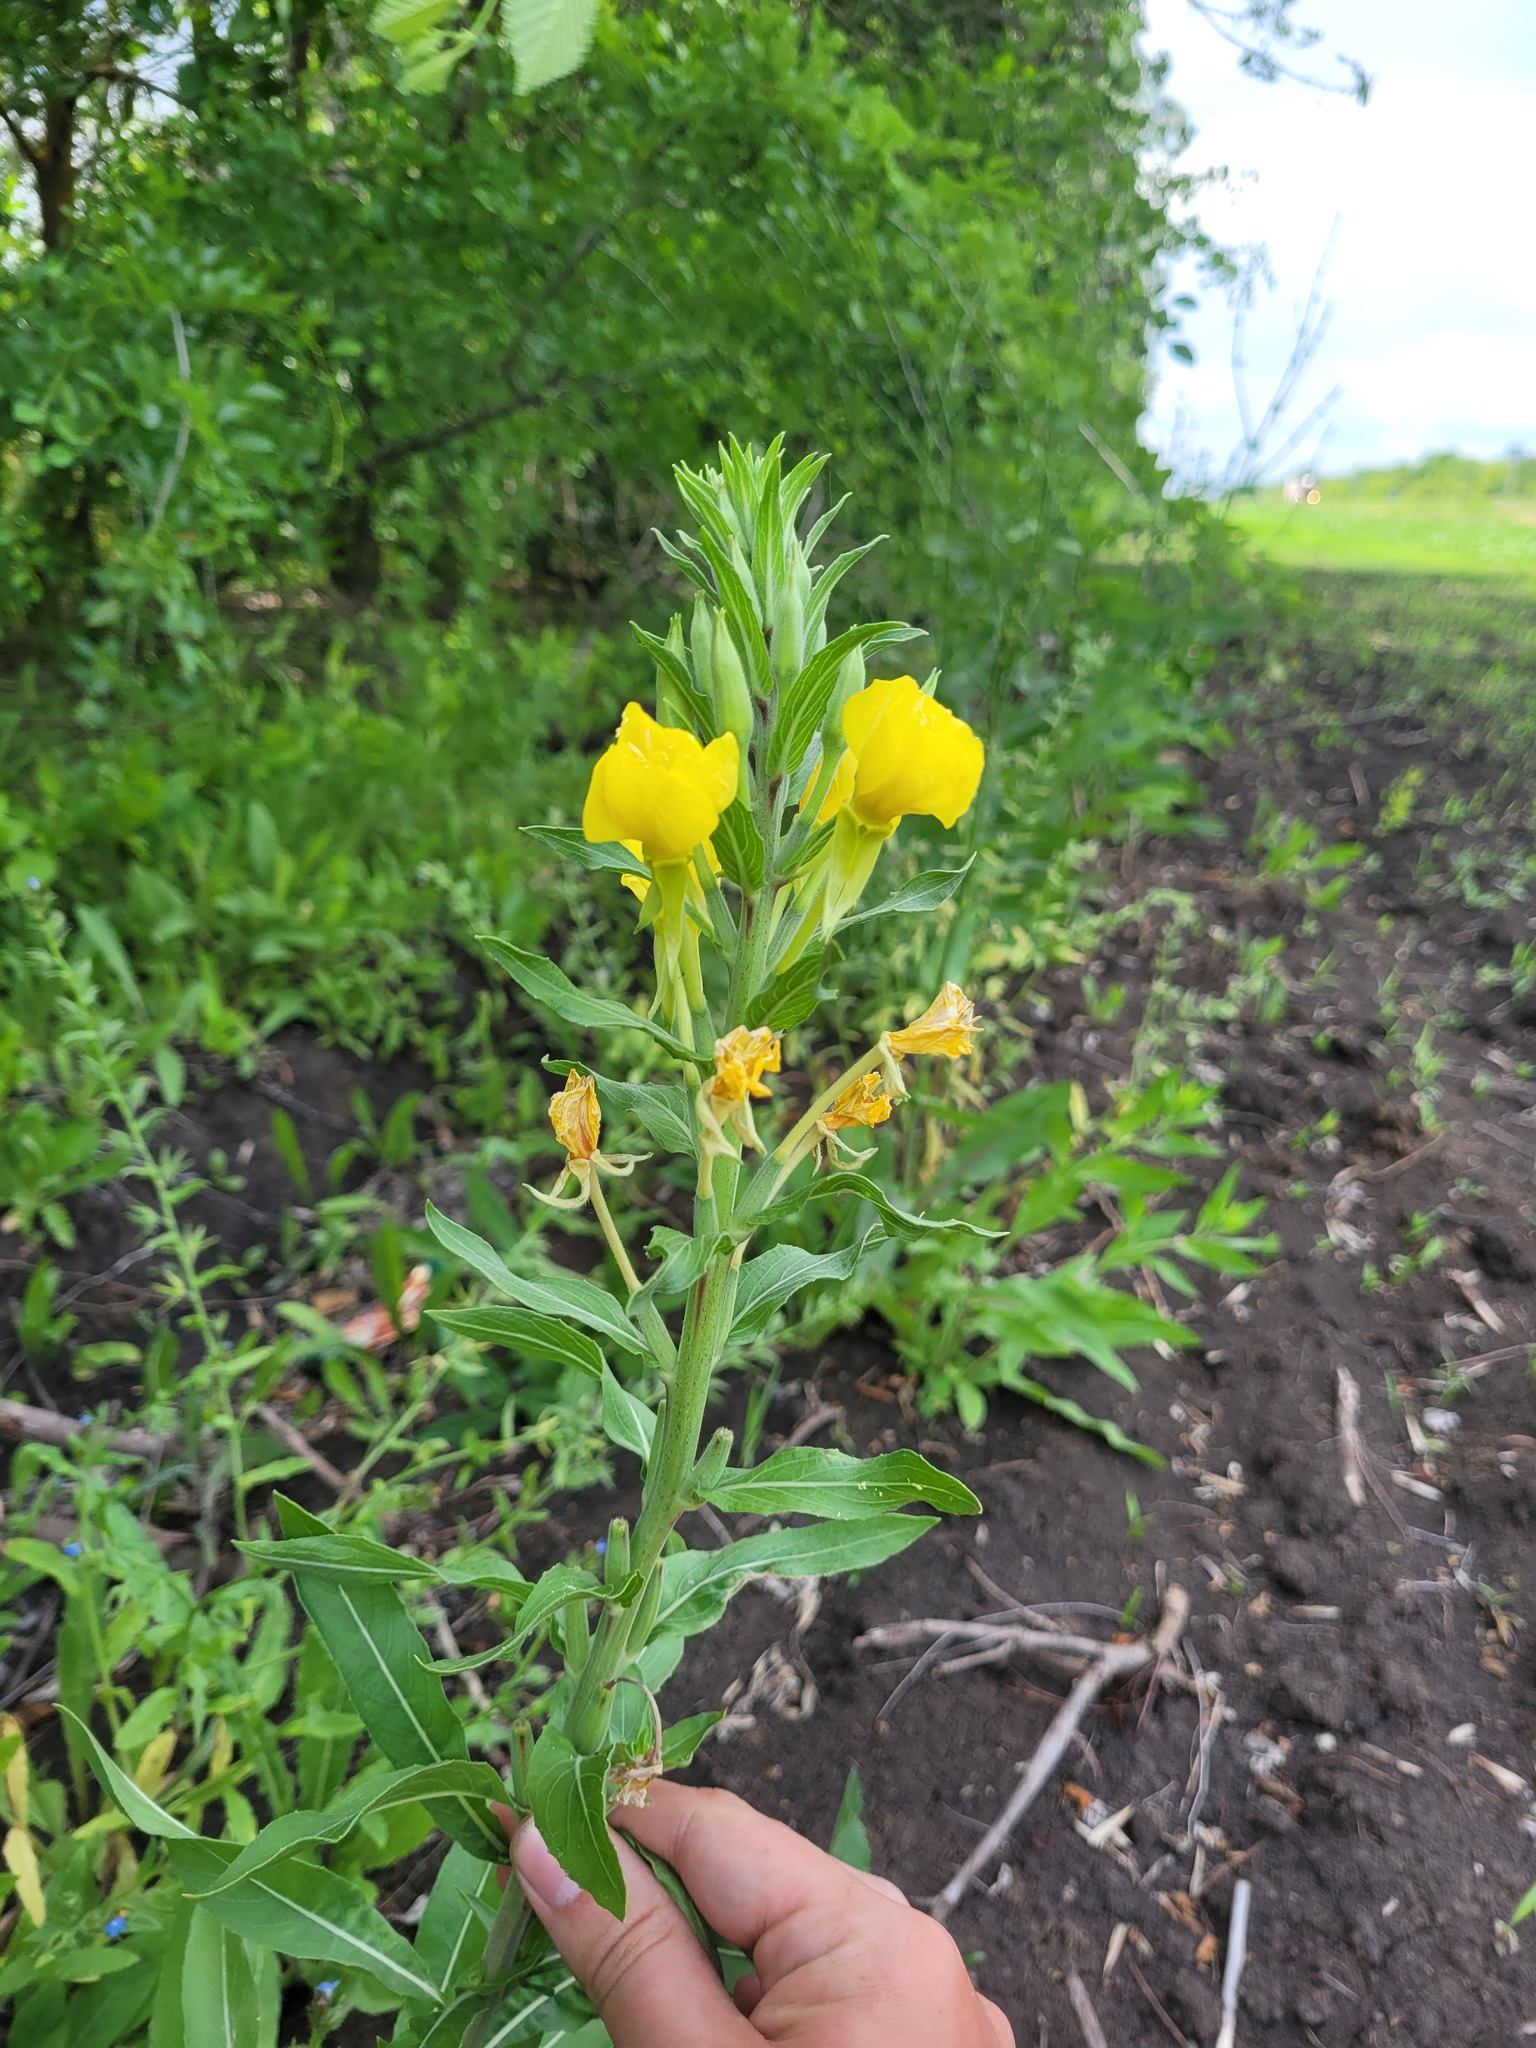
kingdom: Plantae
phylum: Tracheophyta
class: Magnoliopsida
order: Myrtales
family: Onagraceae
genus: Oenothera
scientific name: Oenothera villosa
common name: Hairy evening-primrose
